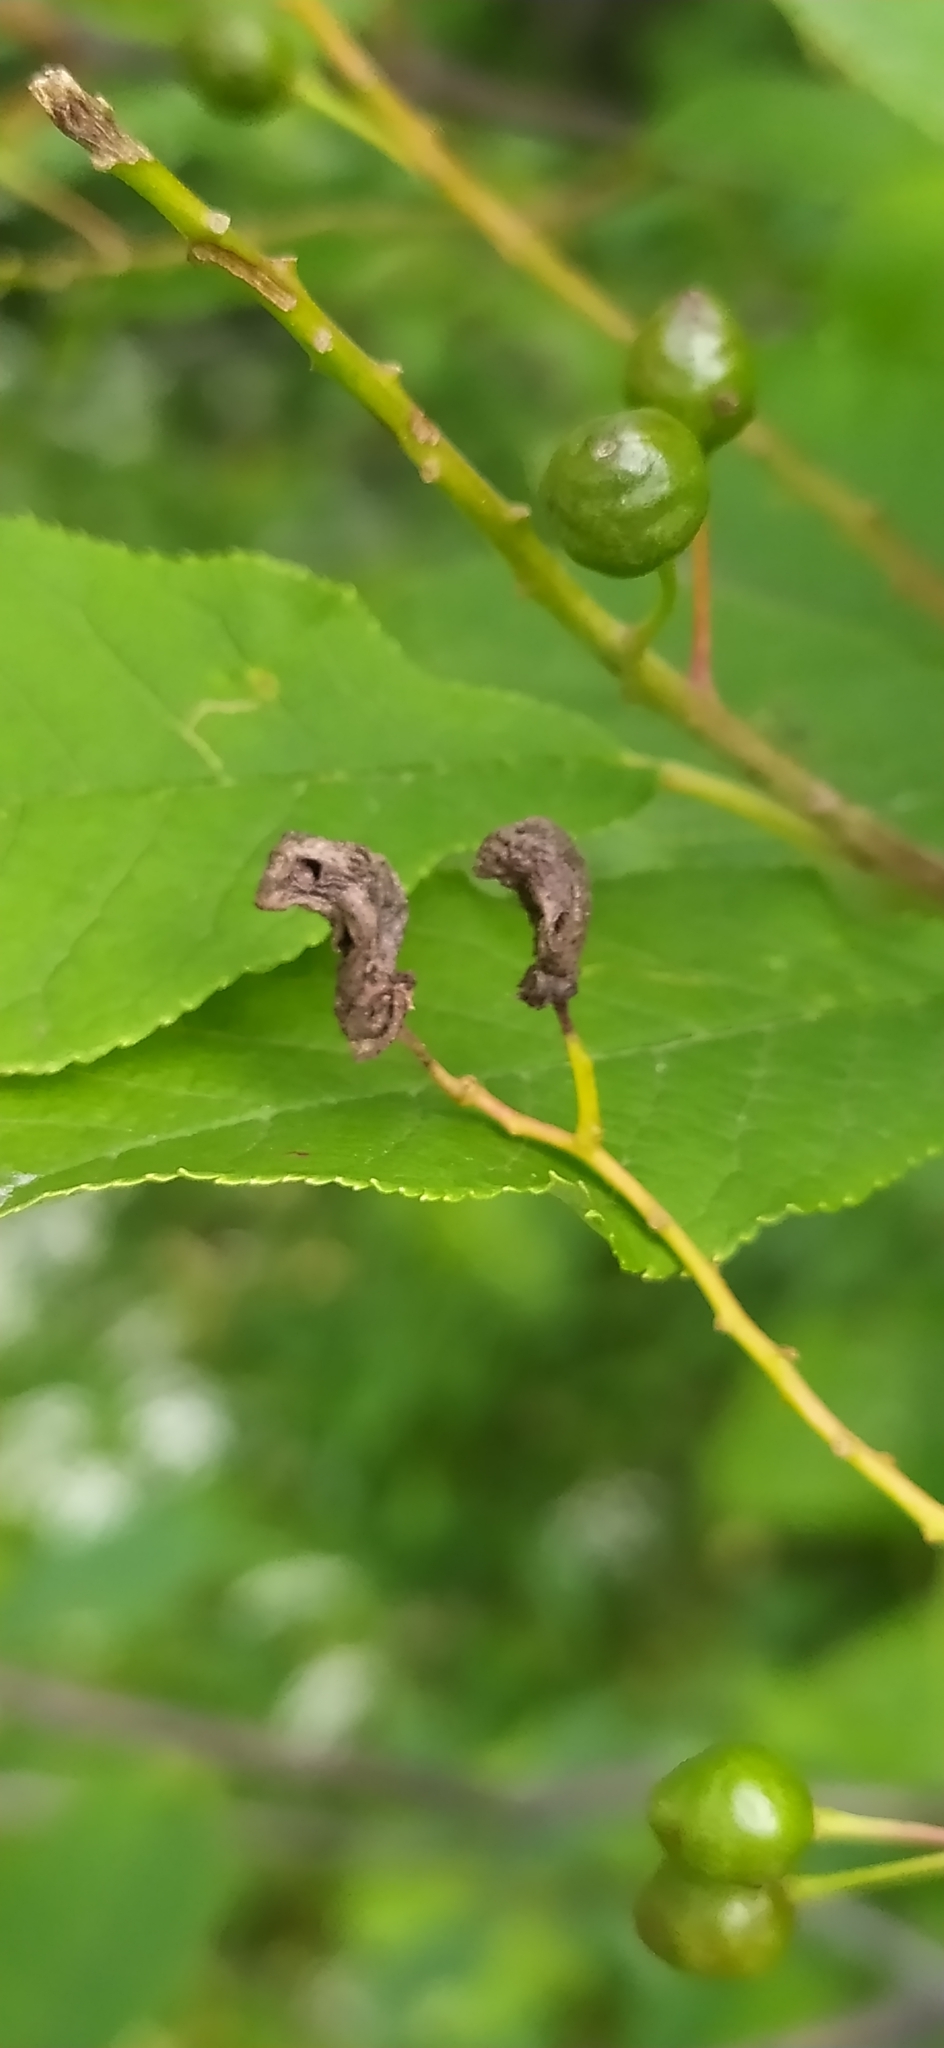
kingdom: Fungi
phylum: Ascomycota
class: Taphrinomycetes
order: Taphrinales
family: Taphrinaceae
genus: Taphrina
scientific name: Taphrina padi
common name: Bird cherry pocket
